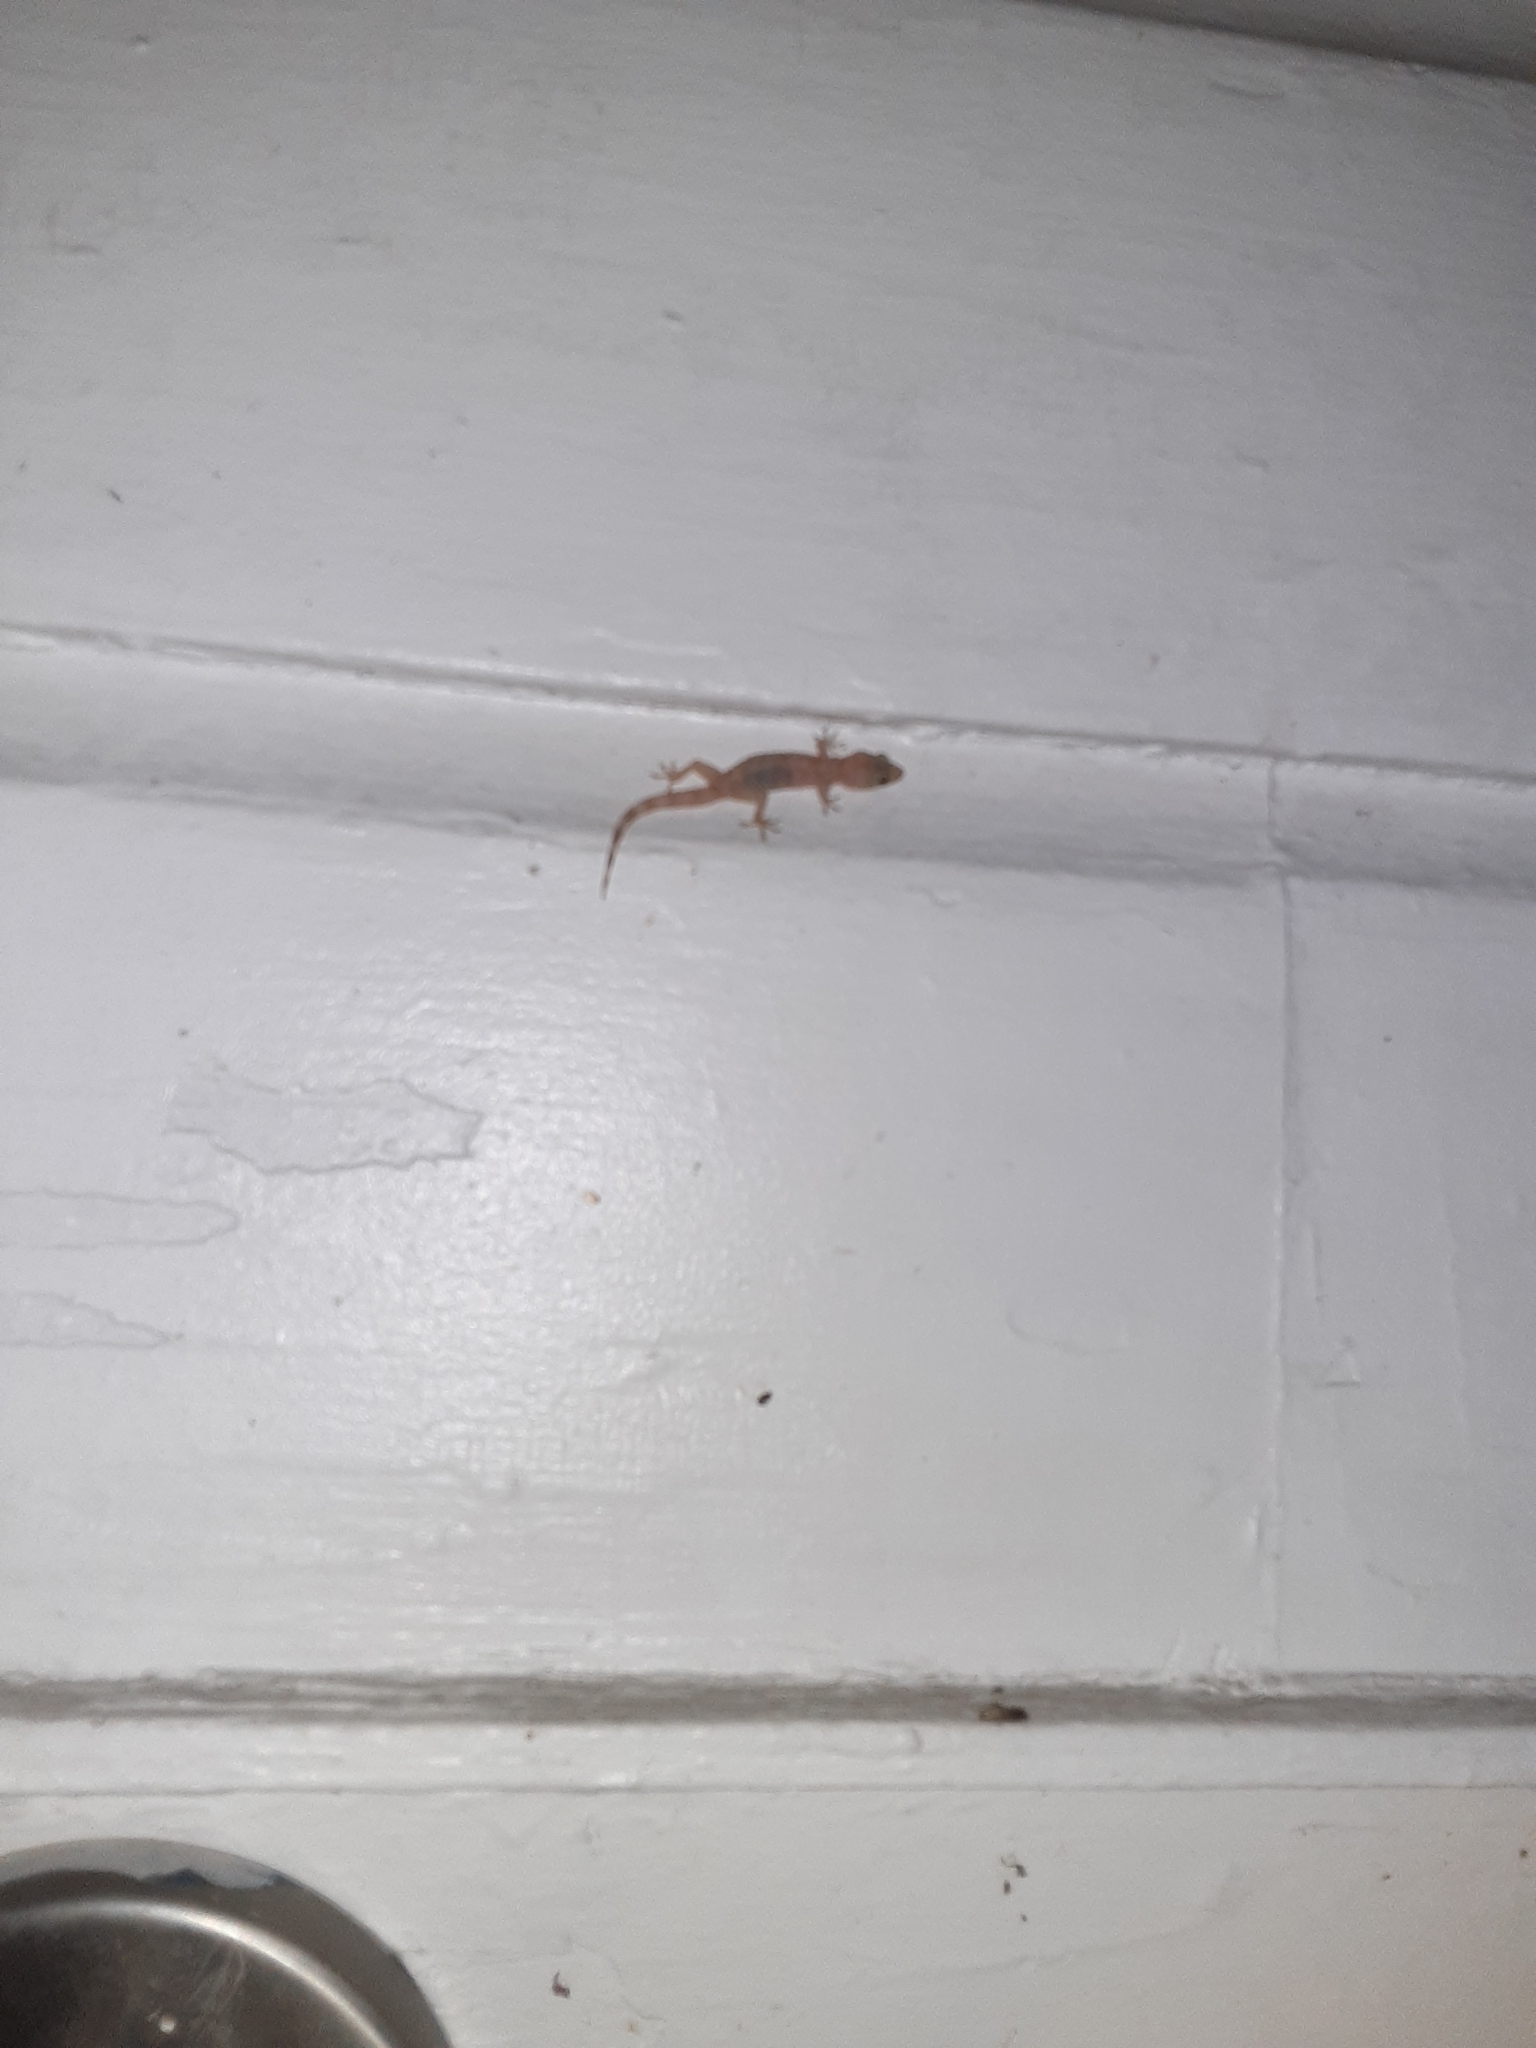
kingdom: Animalia
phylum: Chordata
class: Squamata
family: Gekkonidae
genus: Hemidactylus
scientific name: Hemidactylus turcicus
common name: Turkish gecko
